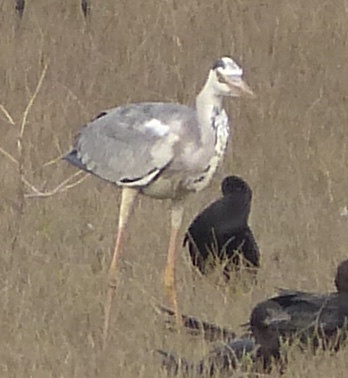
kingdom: Animalia
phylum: Chordata
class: Aves
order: Pelecaniformes
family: Ardeidae
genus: Ardea
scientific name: Ardea cinerea
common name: Grey heron
